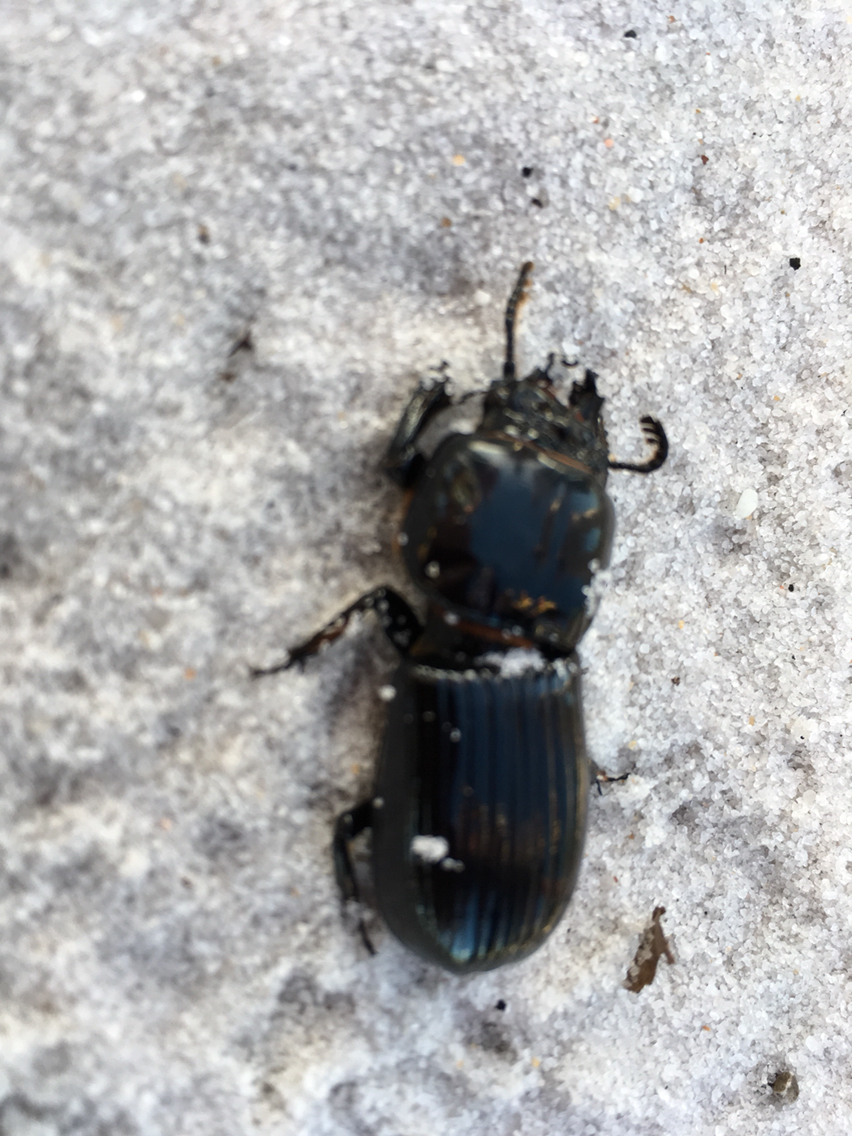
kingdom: Animalia
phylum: Arthropoda
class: Insecta
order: Coleoptera
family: Passalidae
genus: Odontotaenius
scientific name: Odontotaenius floridanus
